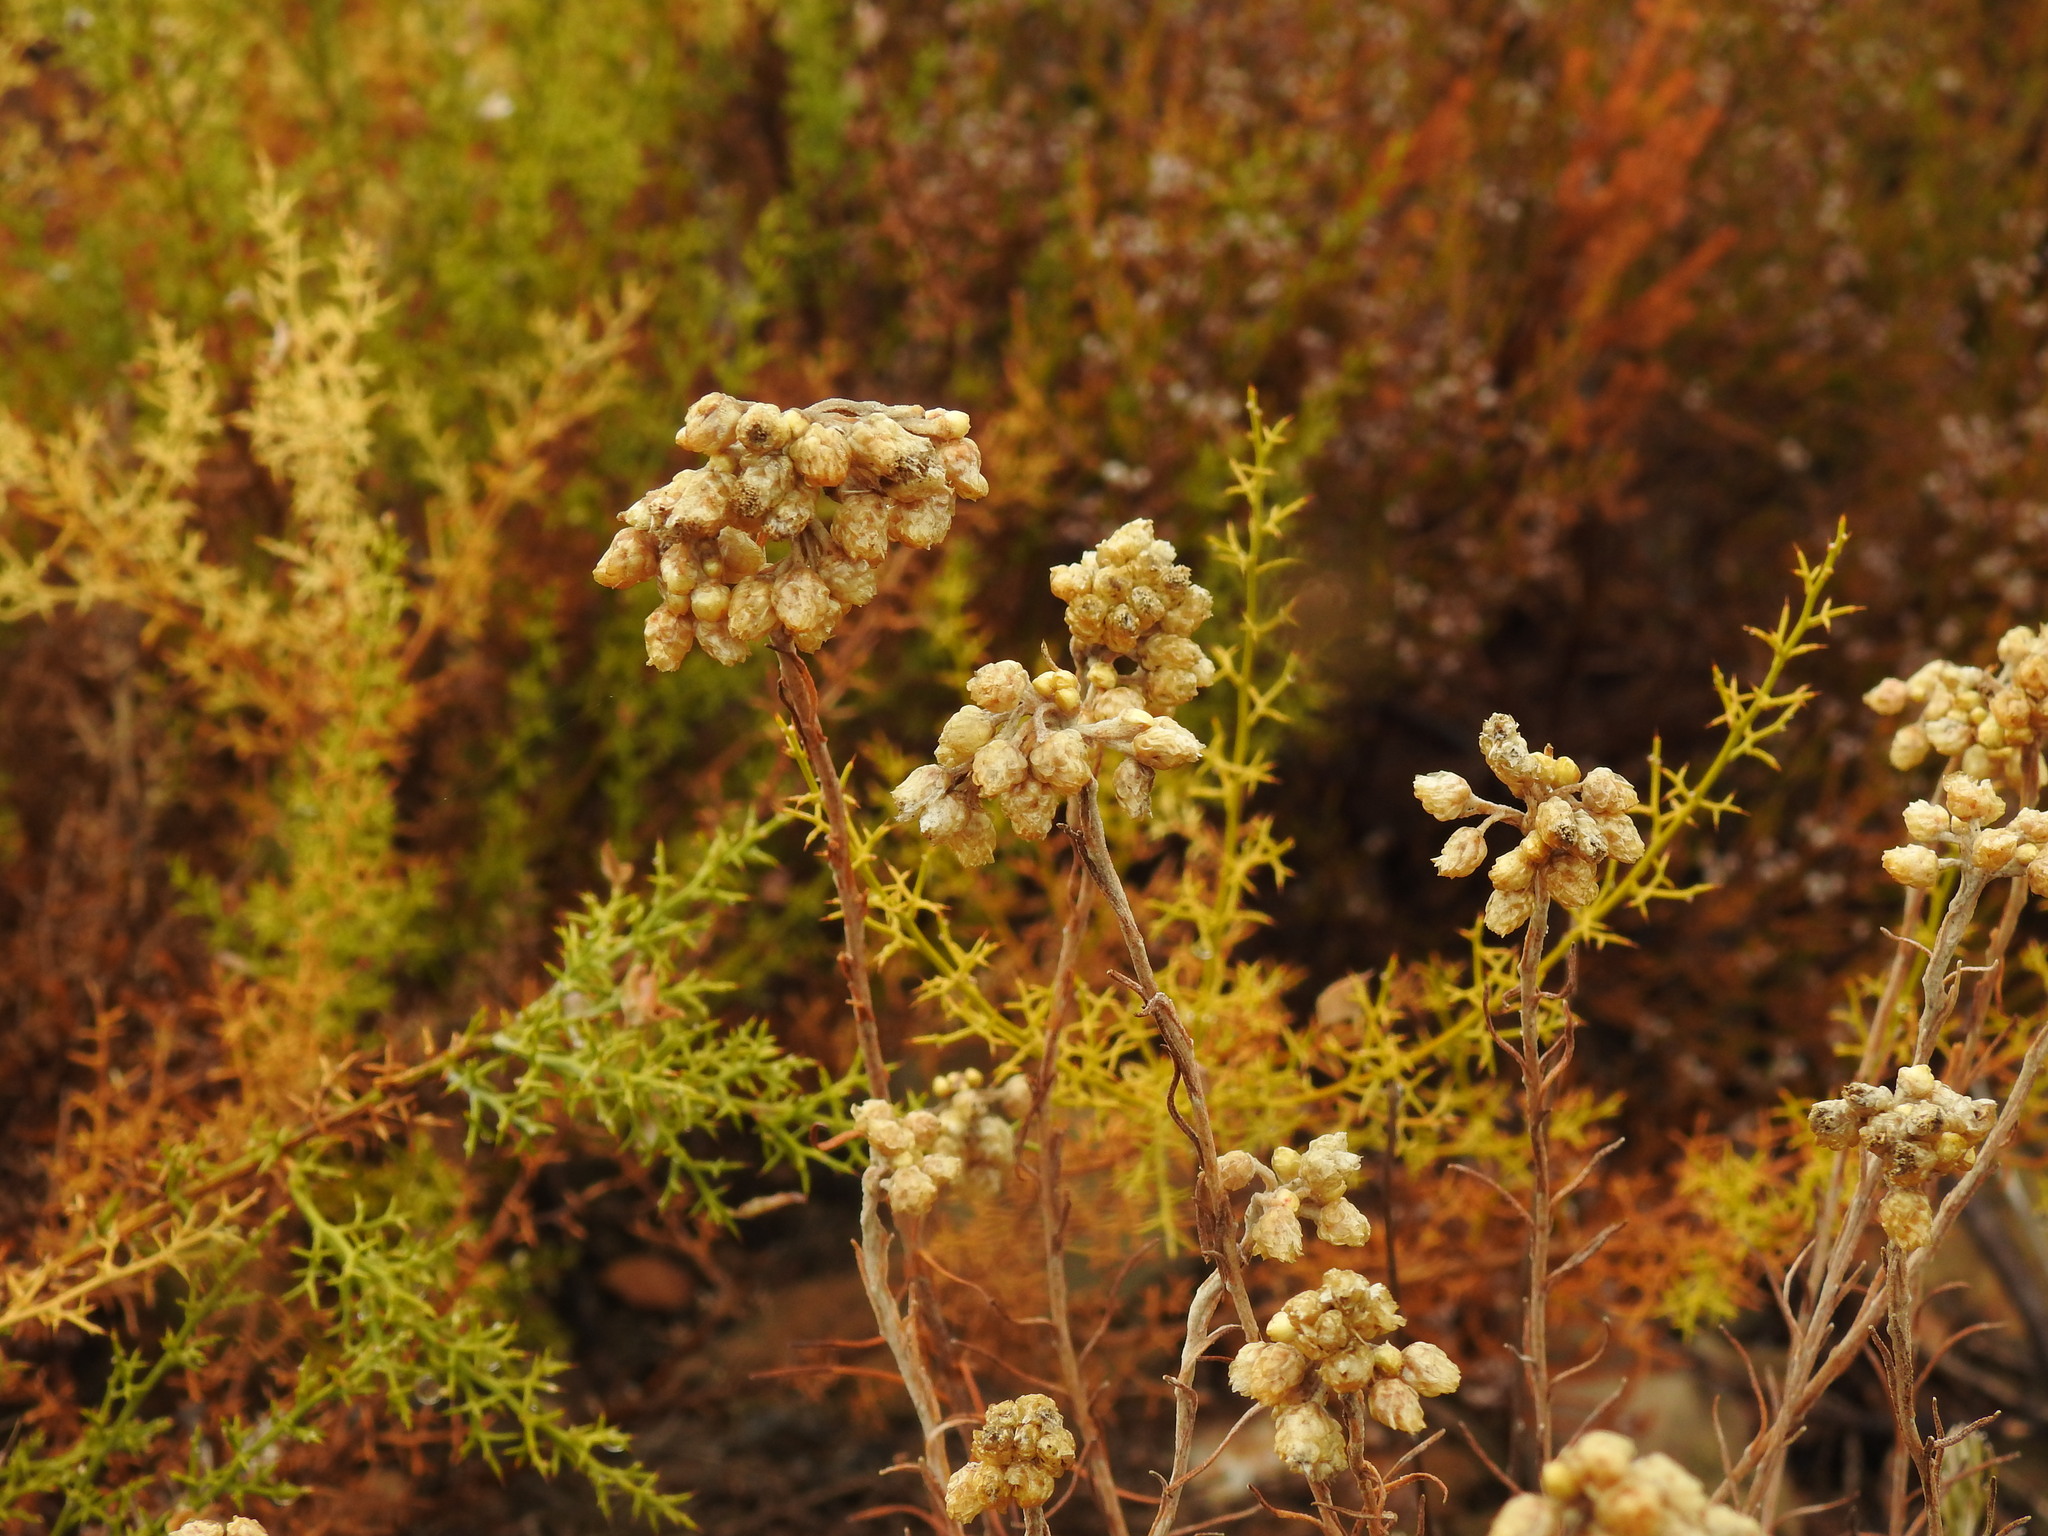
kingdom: Plantae
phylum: Tracheophyta
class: Magnoliopsida
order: Asterales
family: Asteraceae
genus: Helichrysum
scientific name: Helichrysum stoechas
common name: Goldilocks
